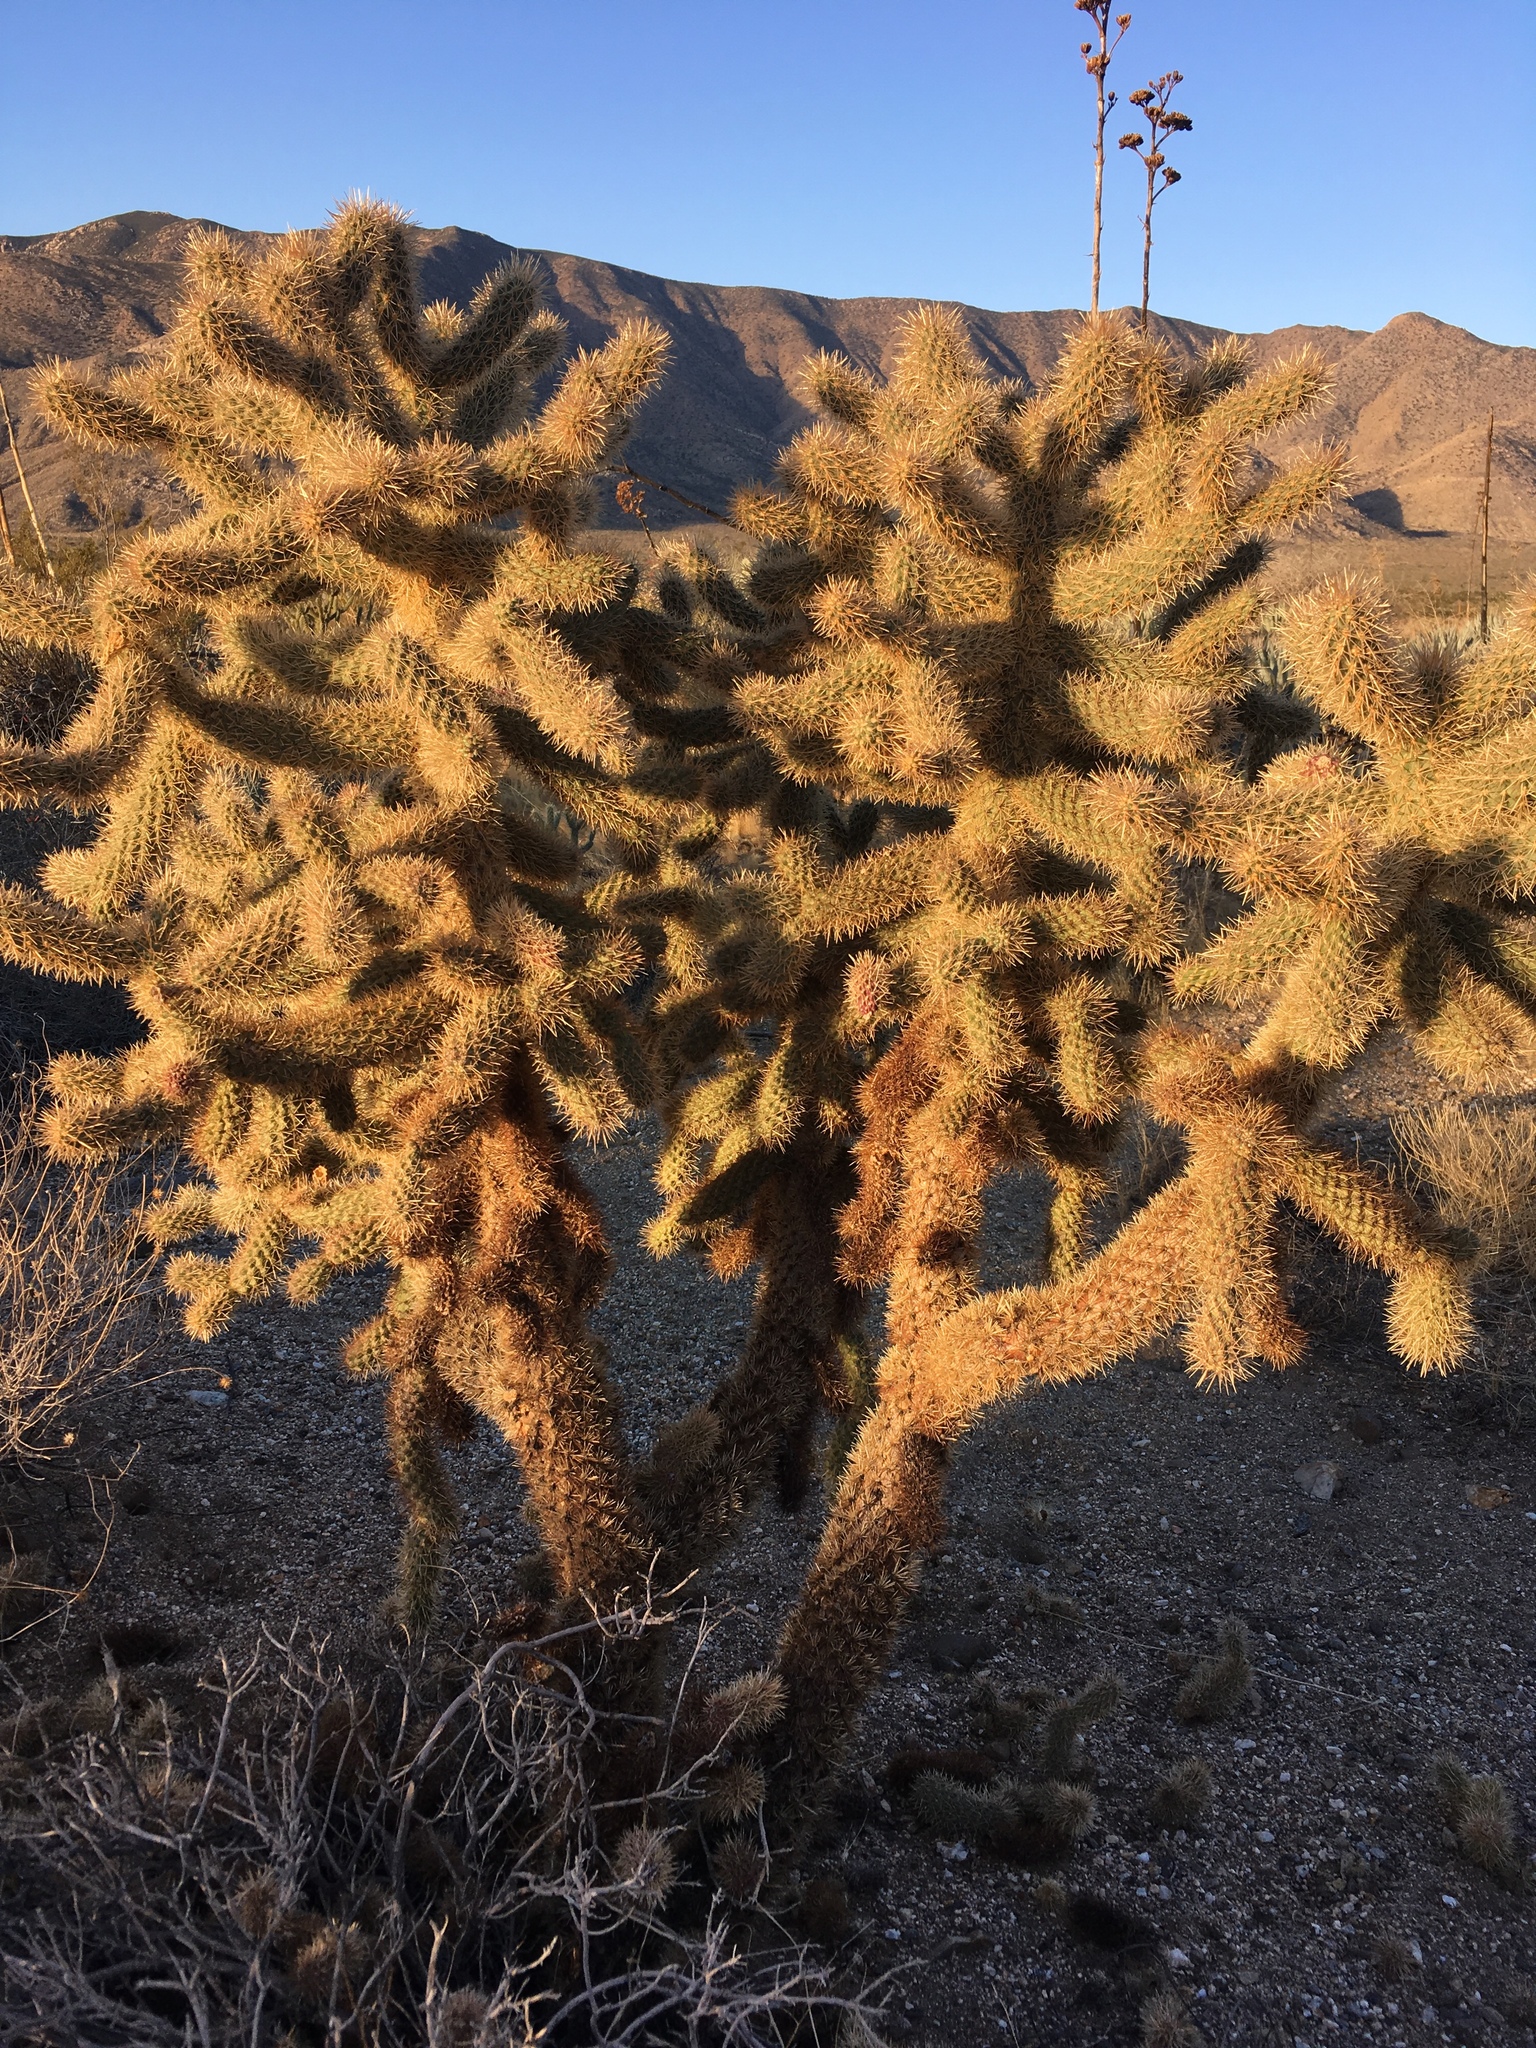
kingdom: Plantae
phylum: Tracheophyta
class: Magnoliopsida
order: Caryophyllales
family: Cactaceae
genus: Cylindropuntia
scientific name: Cylindropuntia fosbergii
